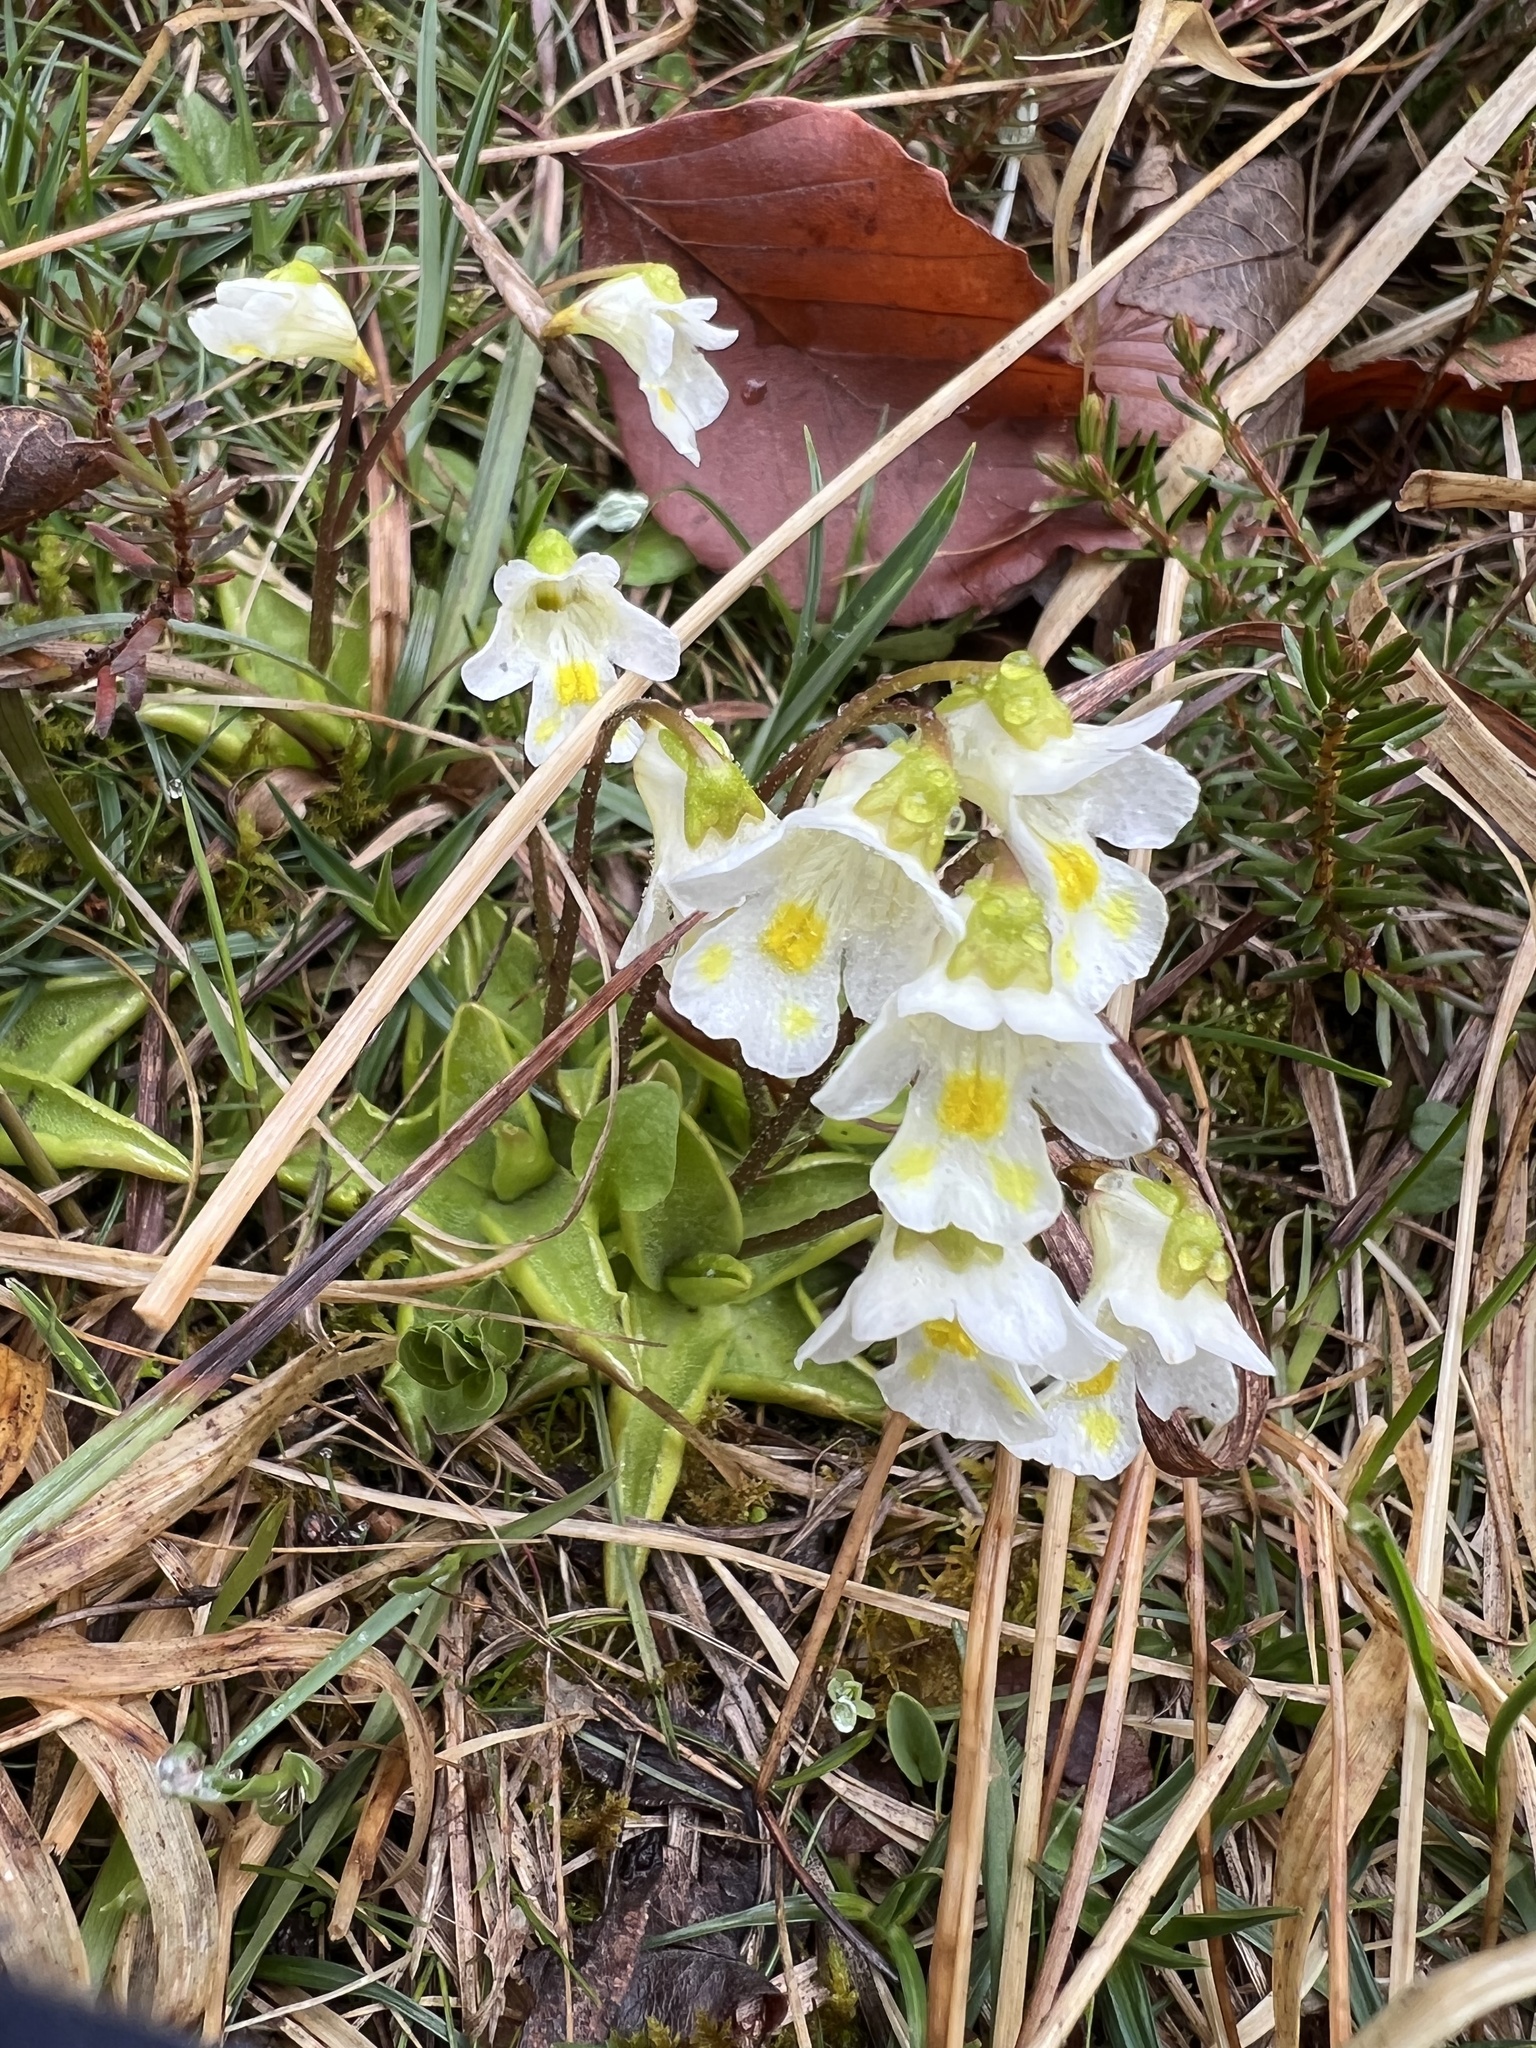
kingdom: Plantae
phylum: Tracheophyta
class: Magnoliopsida
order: Lamiales
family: Lentibulariaceae
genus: Pinguicula
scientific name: Pinguicula alpina
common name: Alpine butterwort
